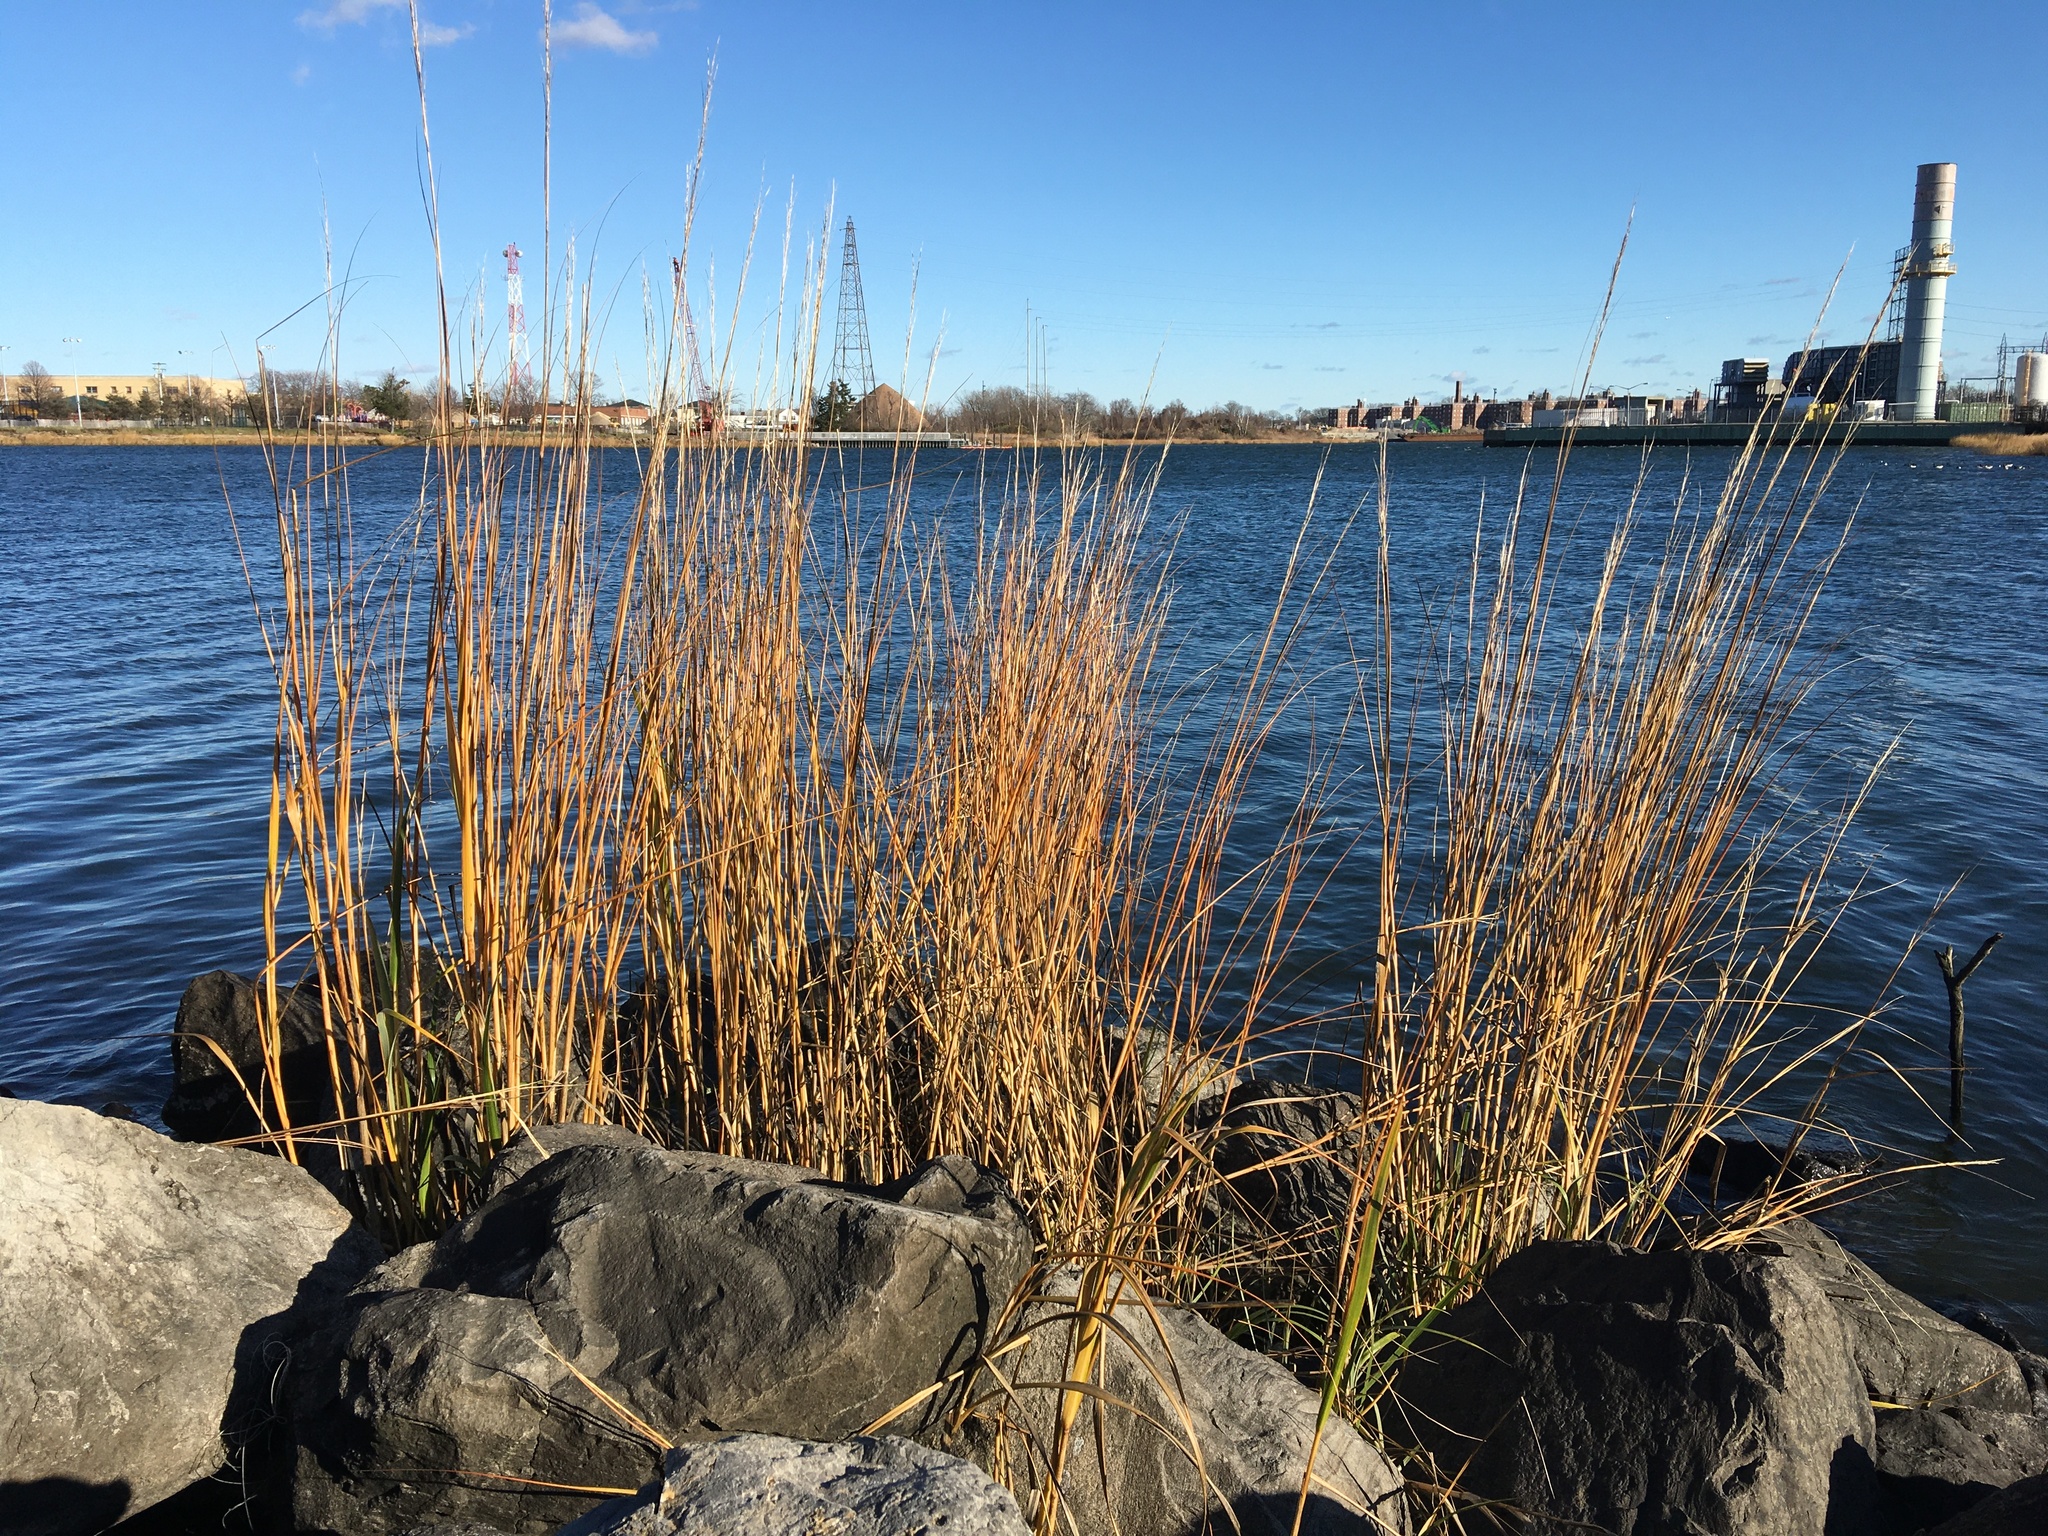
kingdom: Plantae
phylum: Tracheophyta
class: Liliopsida
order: Poales
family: Poaceae
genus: Sporobolus
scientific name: Sporobolus alterniflorus
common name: Atlantic cordgrass
